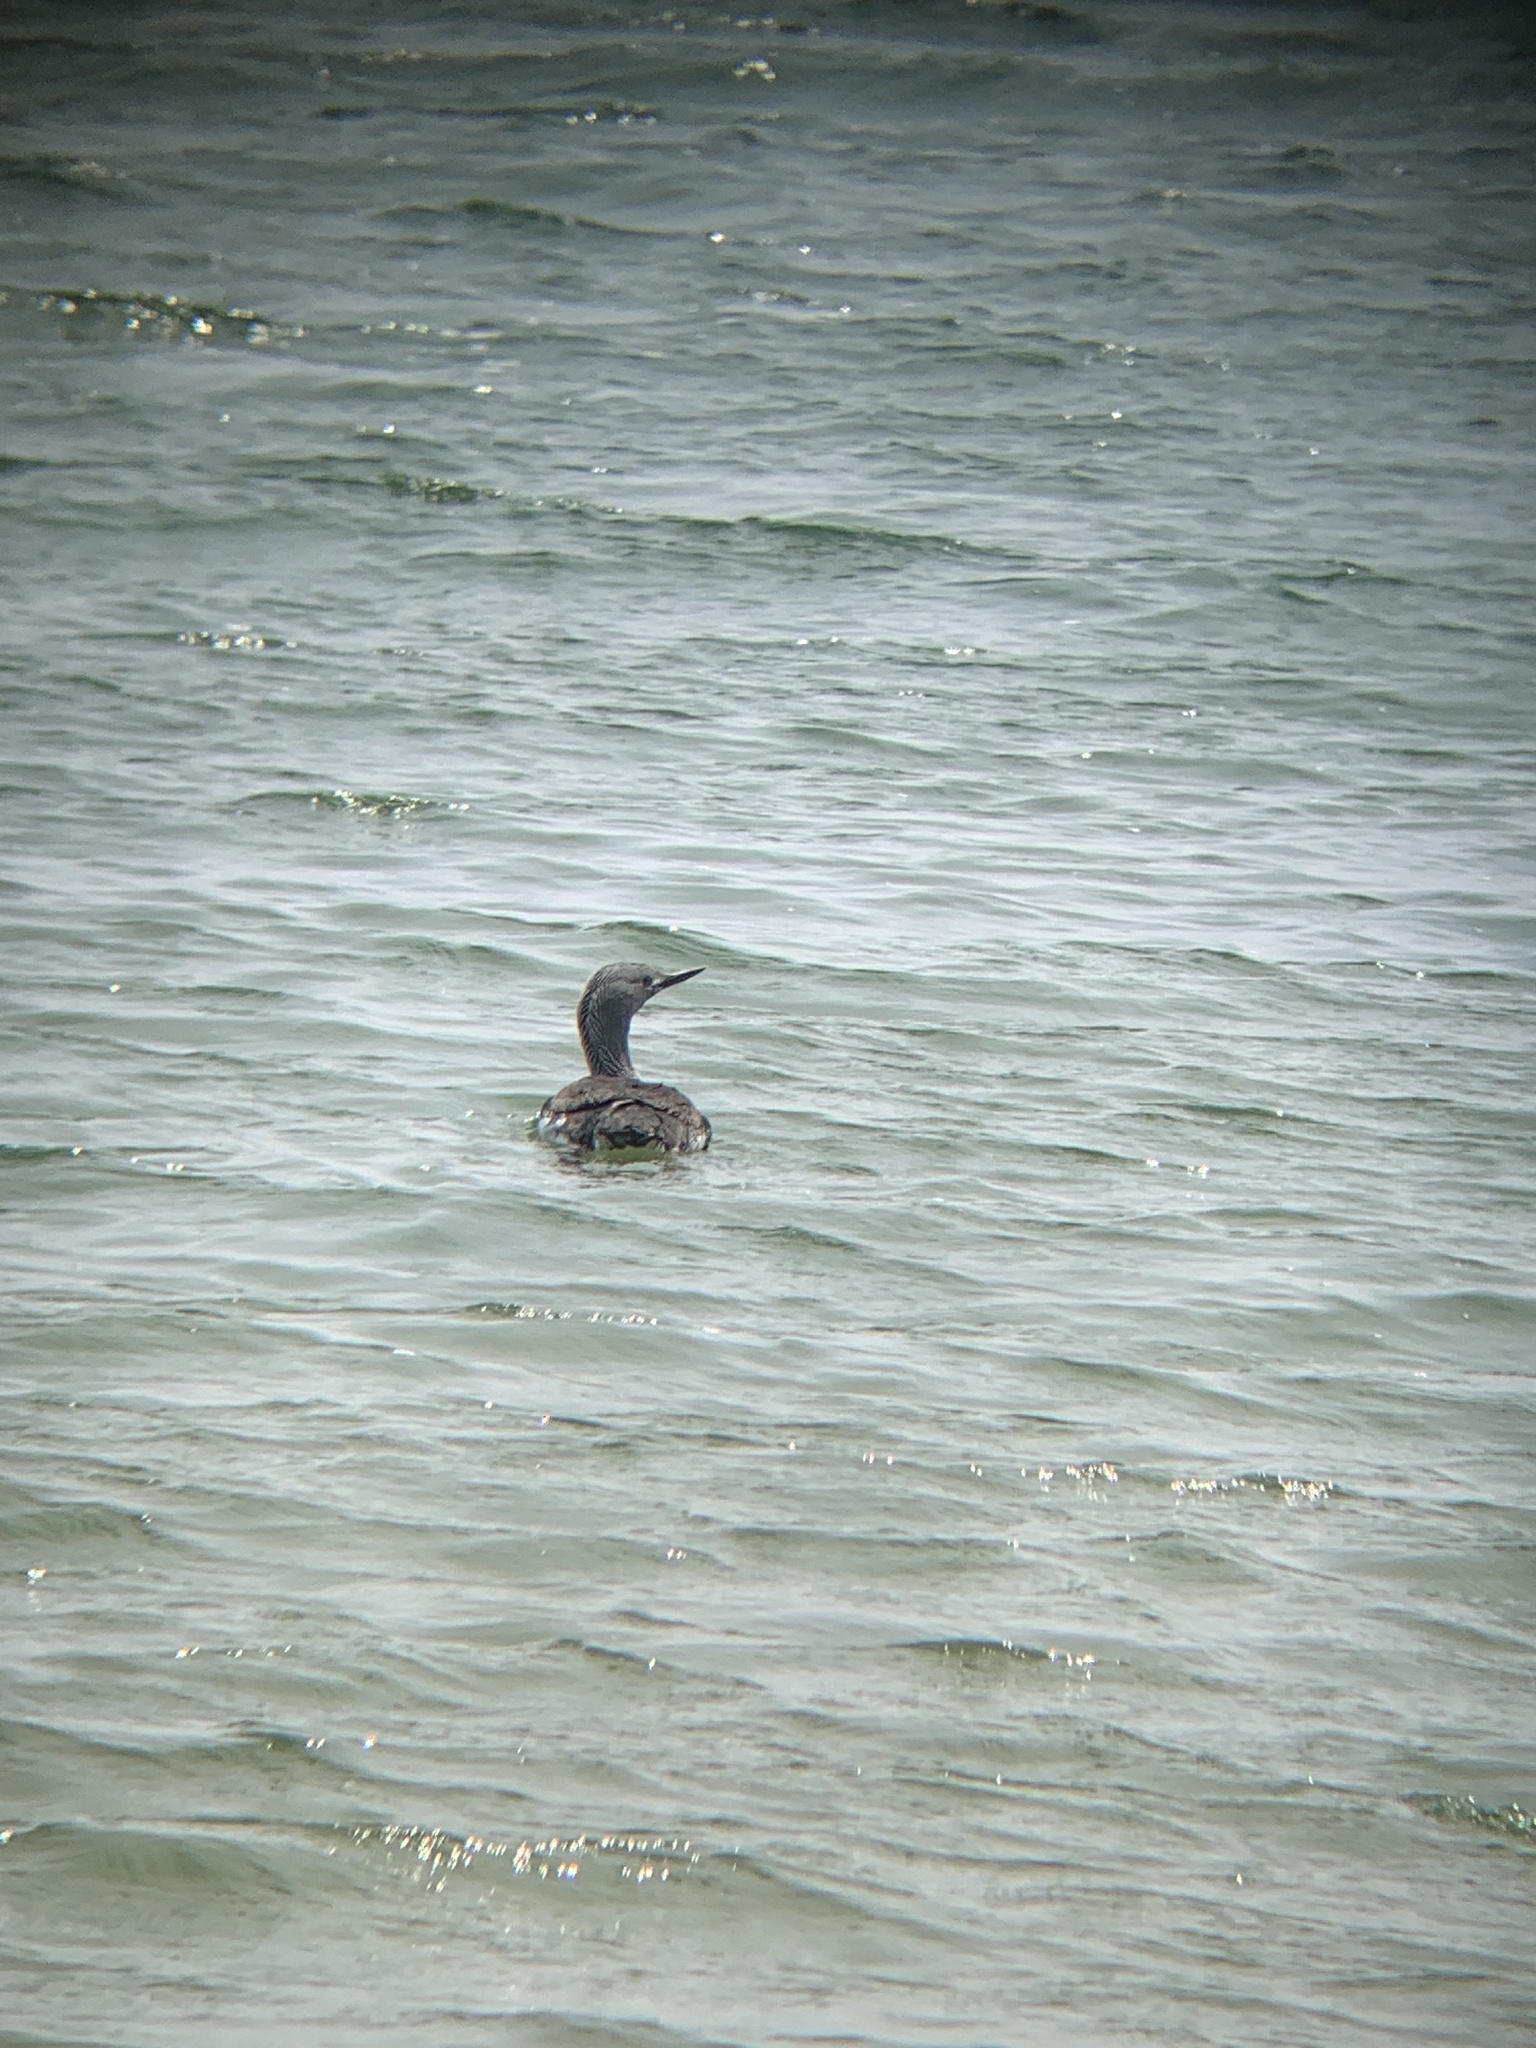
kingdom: Animalia
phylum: Chordata
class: Aves
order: Gaviiformes
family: Gaviidae
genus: Gavia
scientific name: Gavia stellata
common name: Red-throated loon
